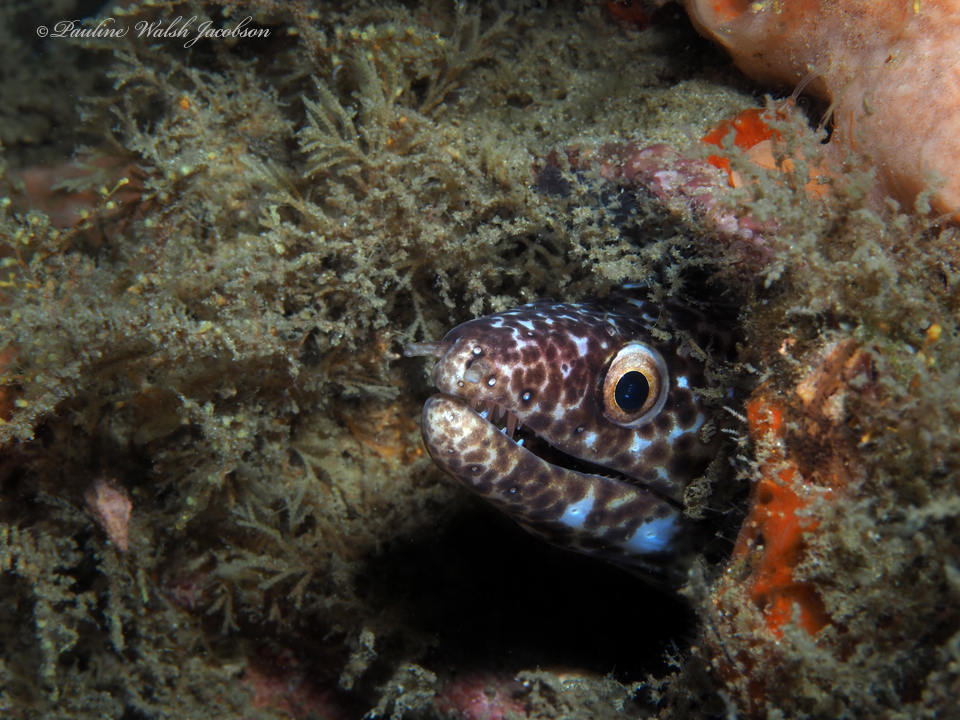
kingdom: Animalia
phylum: Chordata
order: Anguilliformes
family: Muraenidae
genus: Gymnothorax
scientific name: Gymnothorax moringa
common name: Spotted moray
